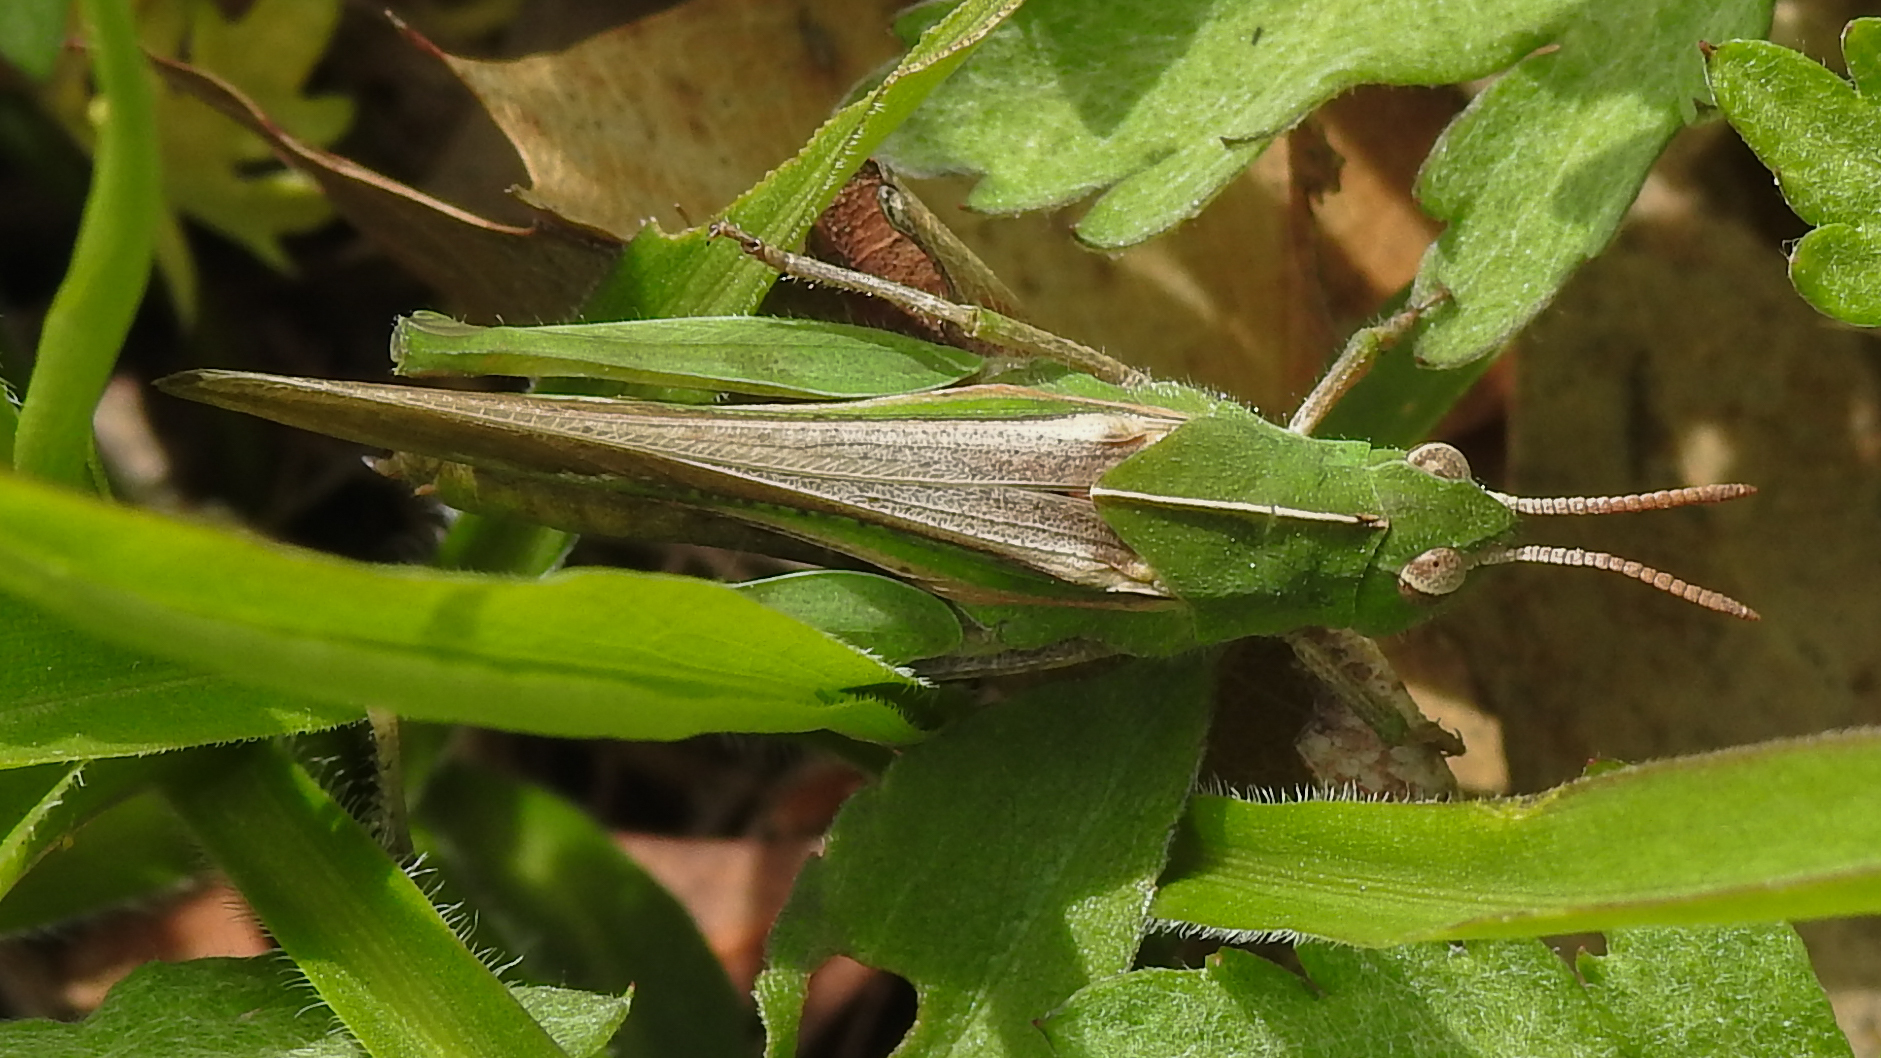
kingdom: Animalia
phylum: Arthropoda
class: Insecta
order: Orthoptera
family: Acrididae
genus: Chortophaga
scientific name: Chortophaga viridifasciata
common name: Green-striped grasshopper
